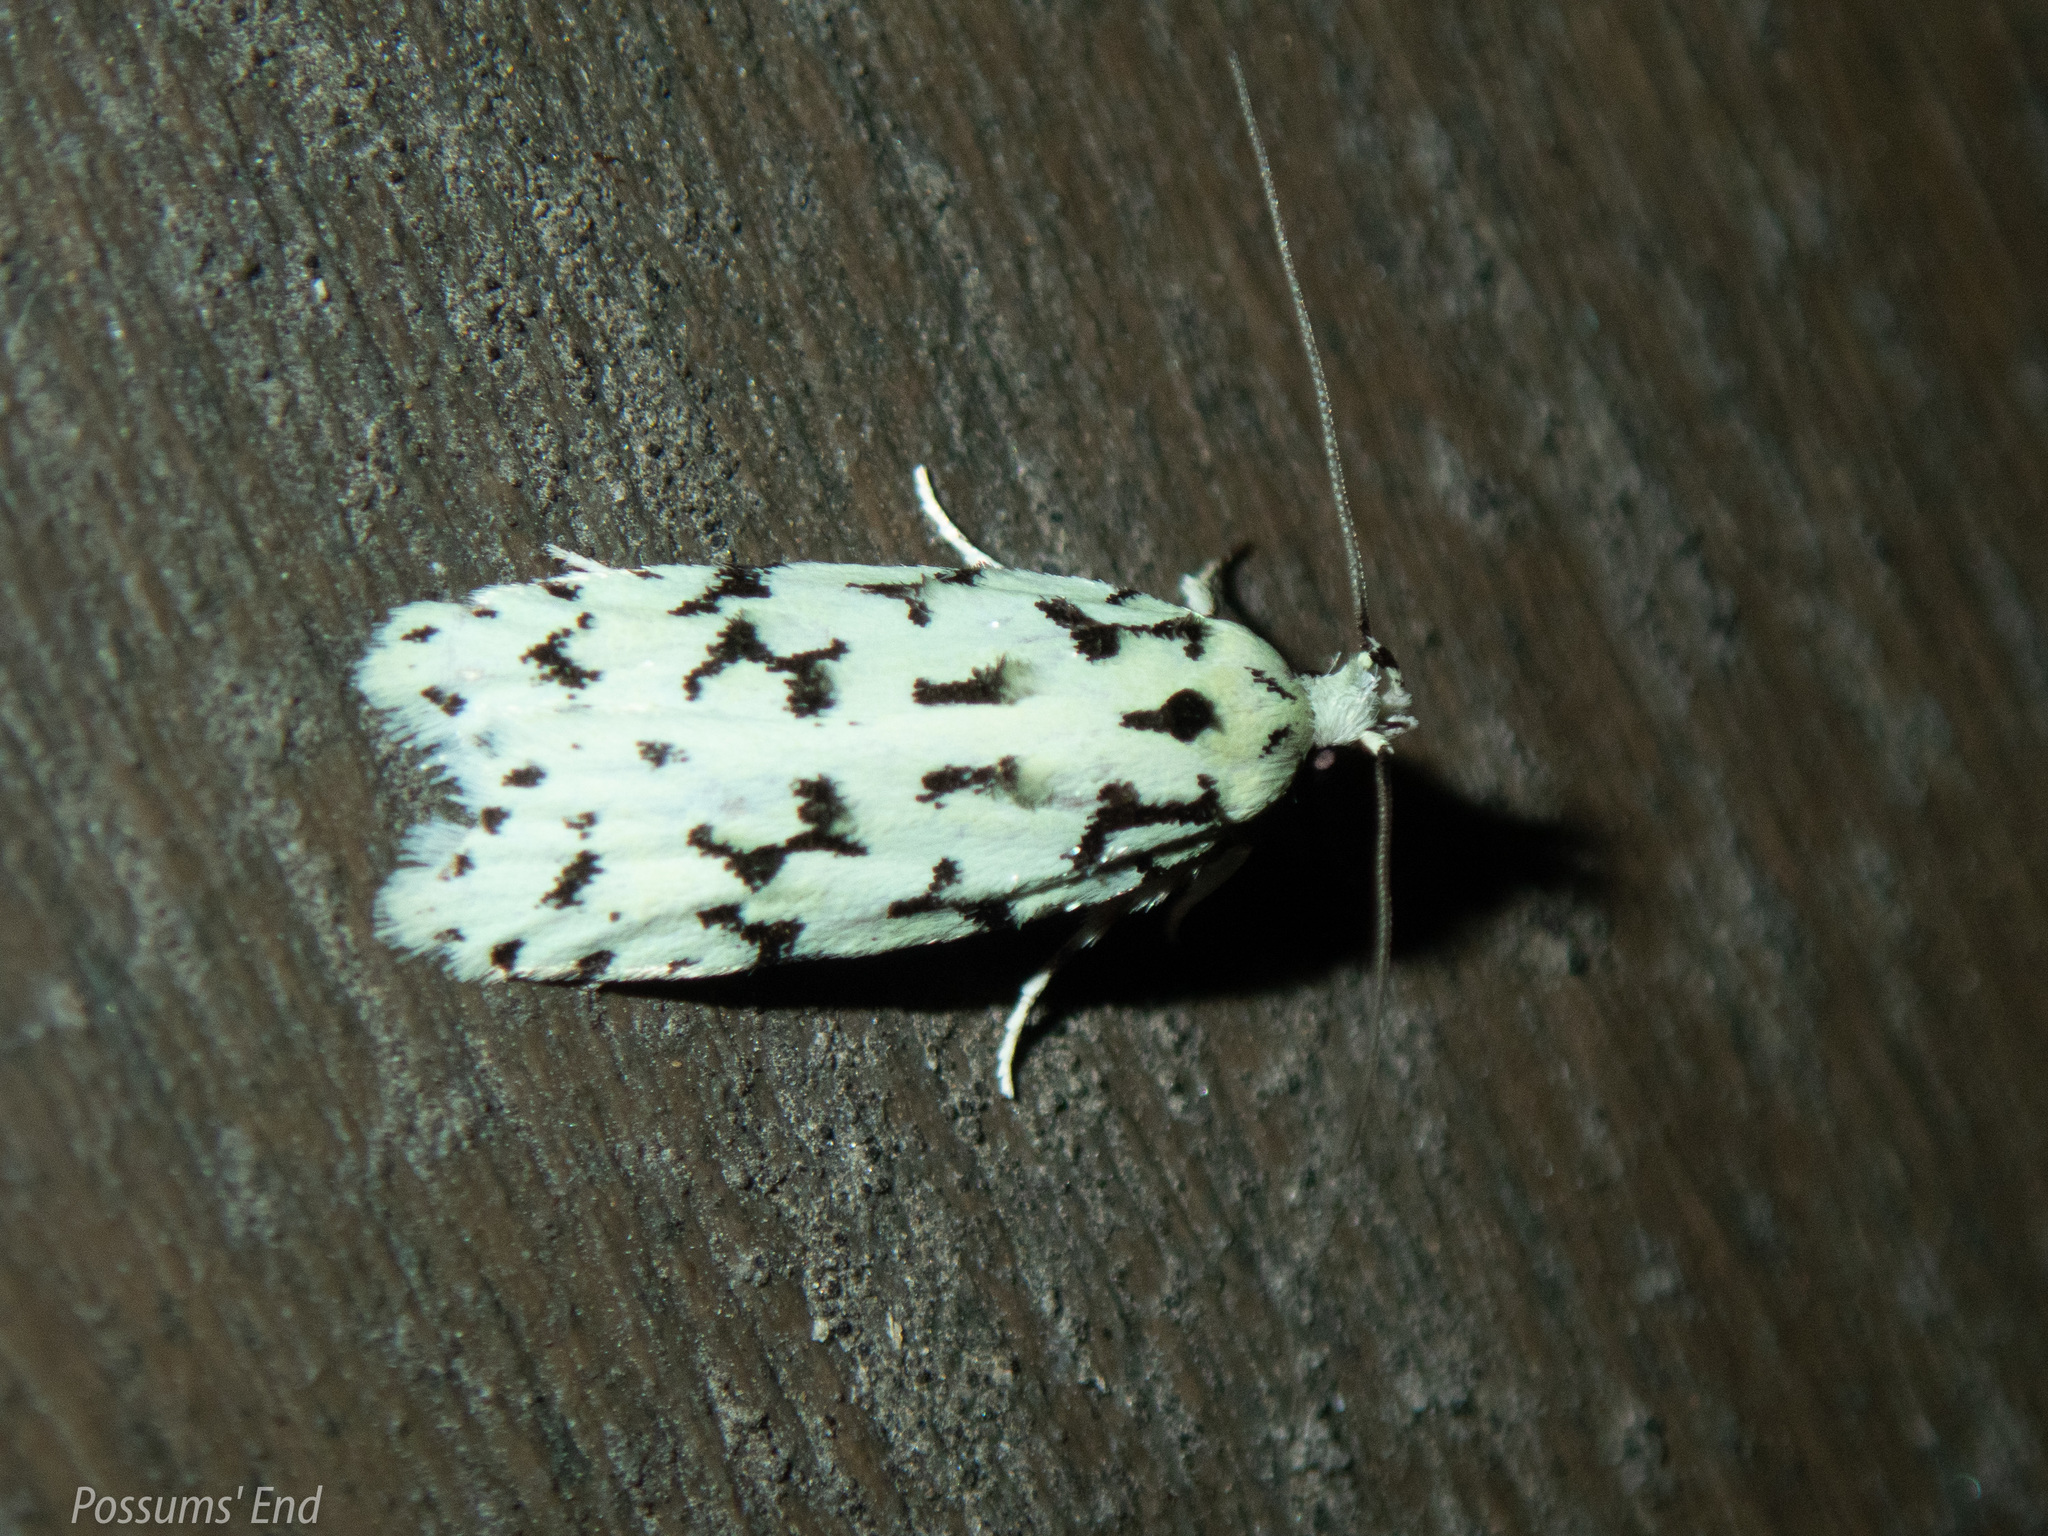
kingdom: Animalia
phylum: Arthropoda
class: Insecta
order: Lepidoptera
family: Oecophoridae
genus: Izatha
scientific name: Izatha huttoni
